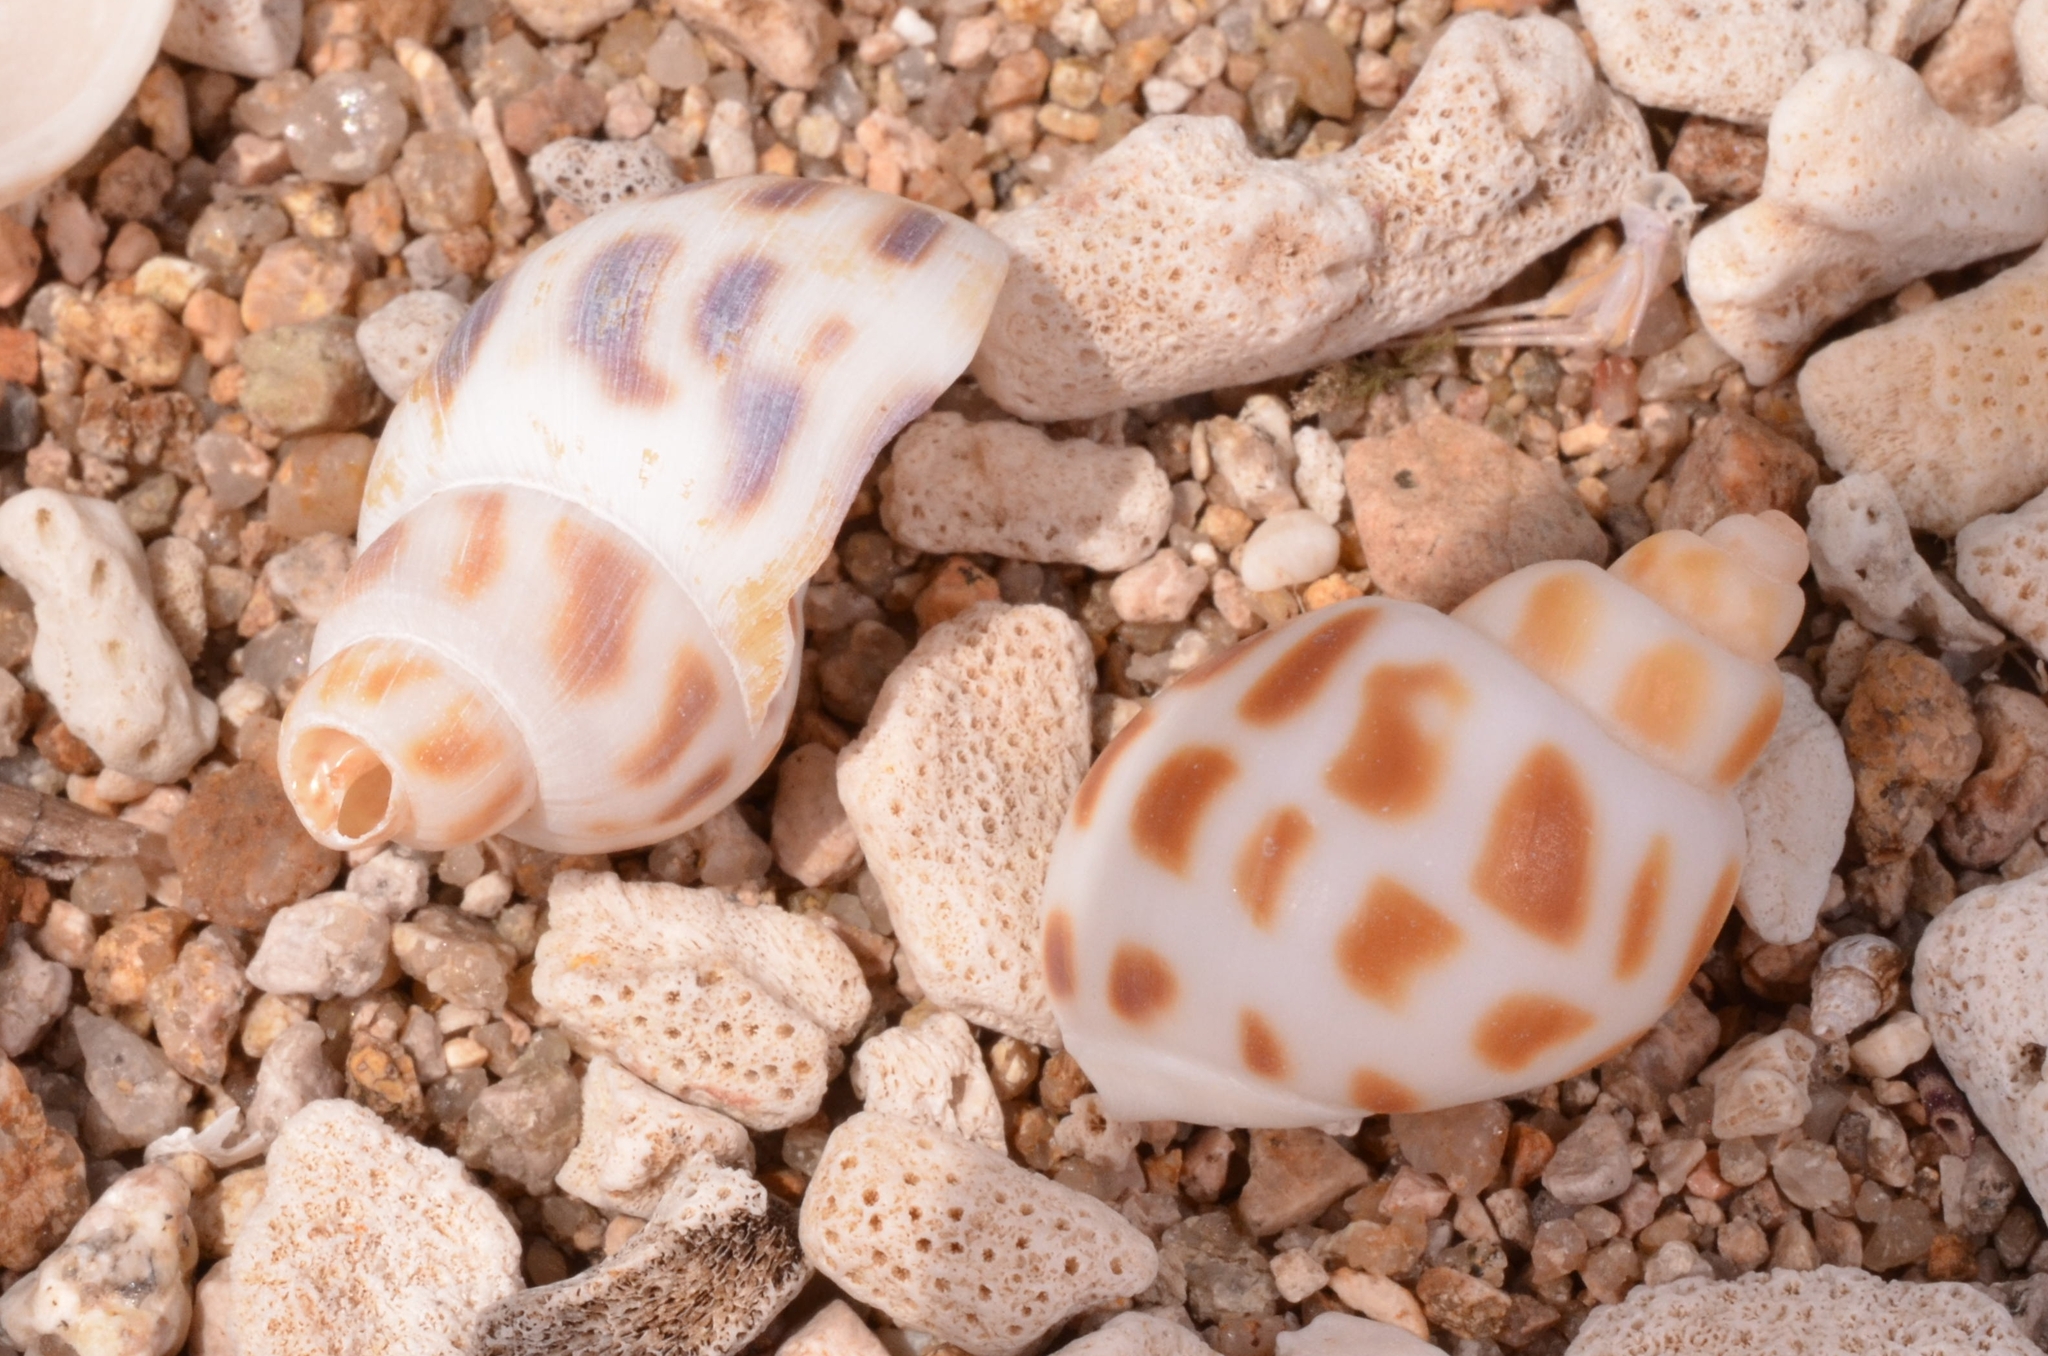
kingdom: Animalia
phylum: Mollusca
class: Gastropoda
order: Neogastropoda
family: Babyloniidae
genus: Babylonia
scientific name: Babylonia areolata
